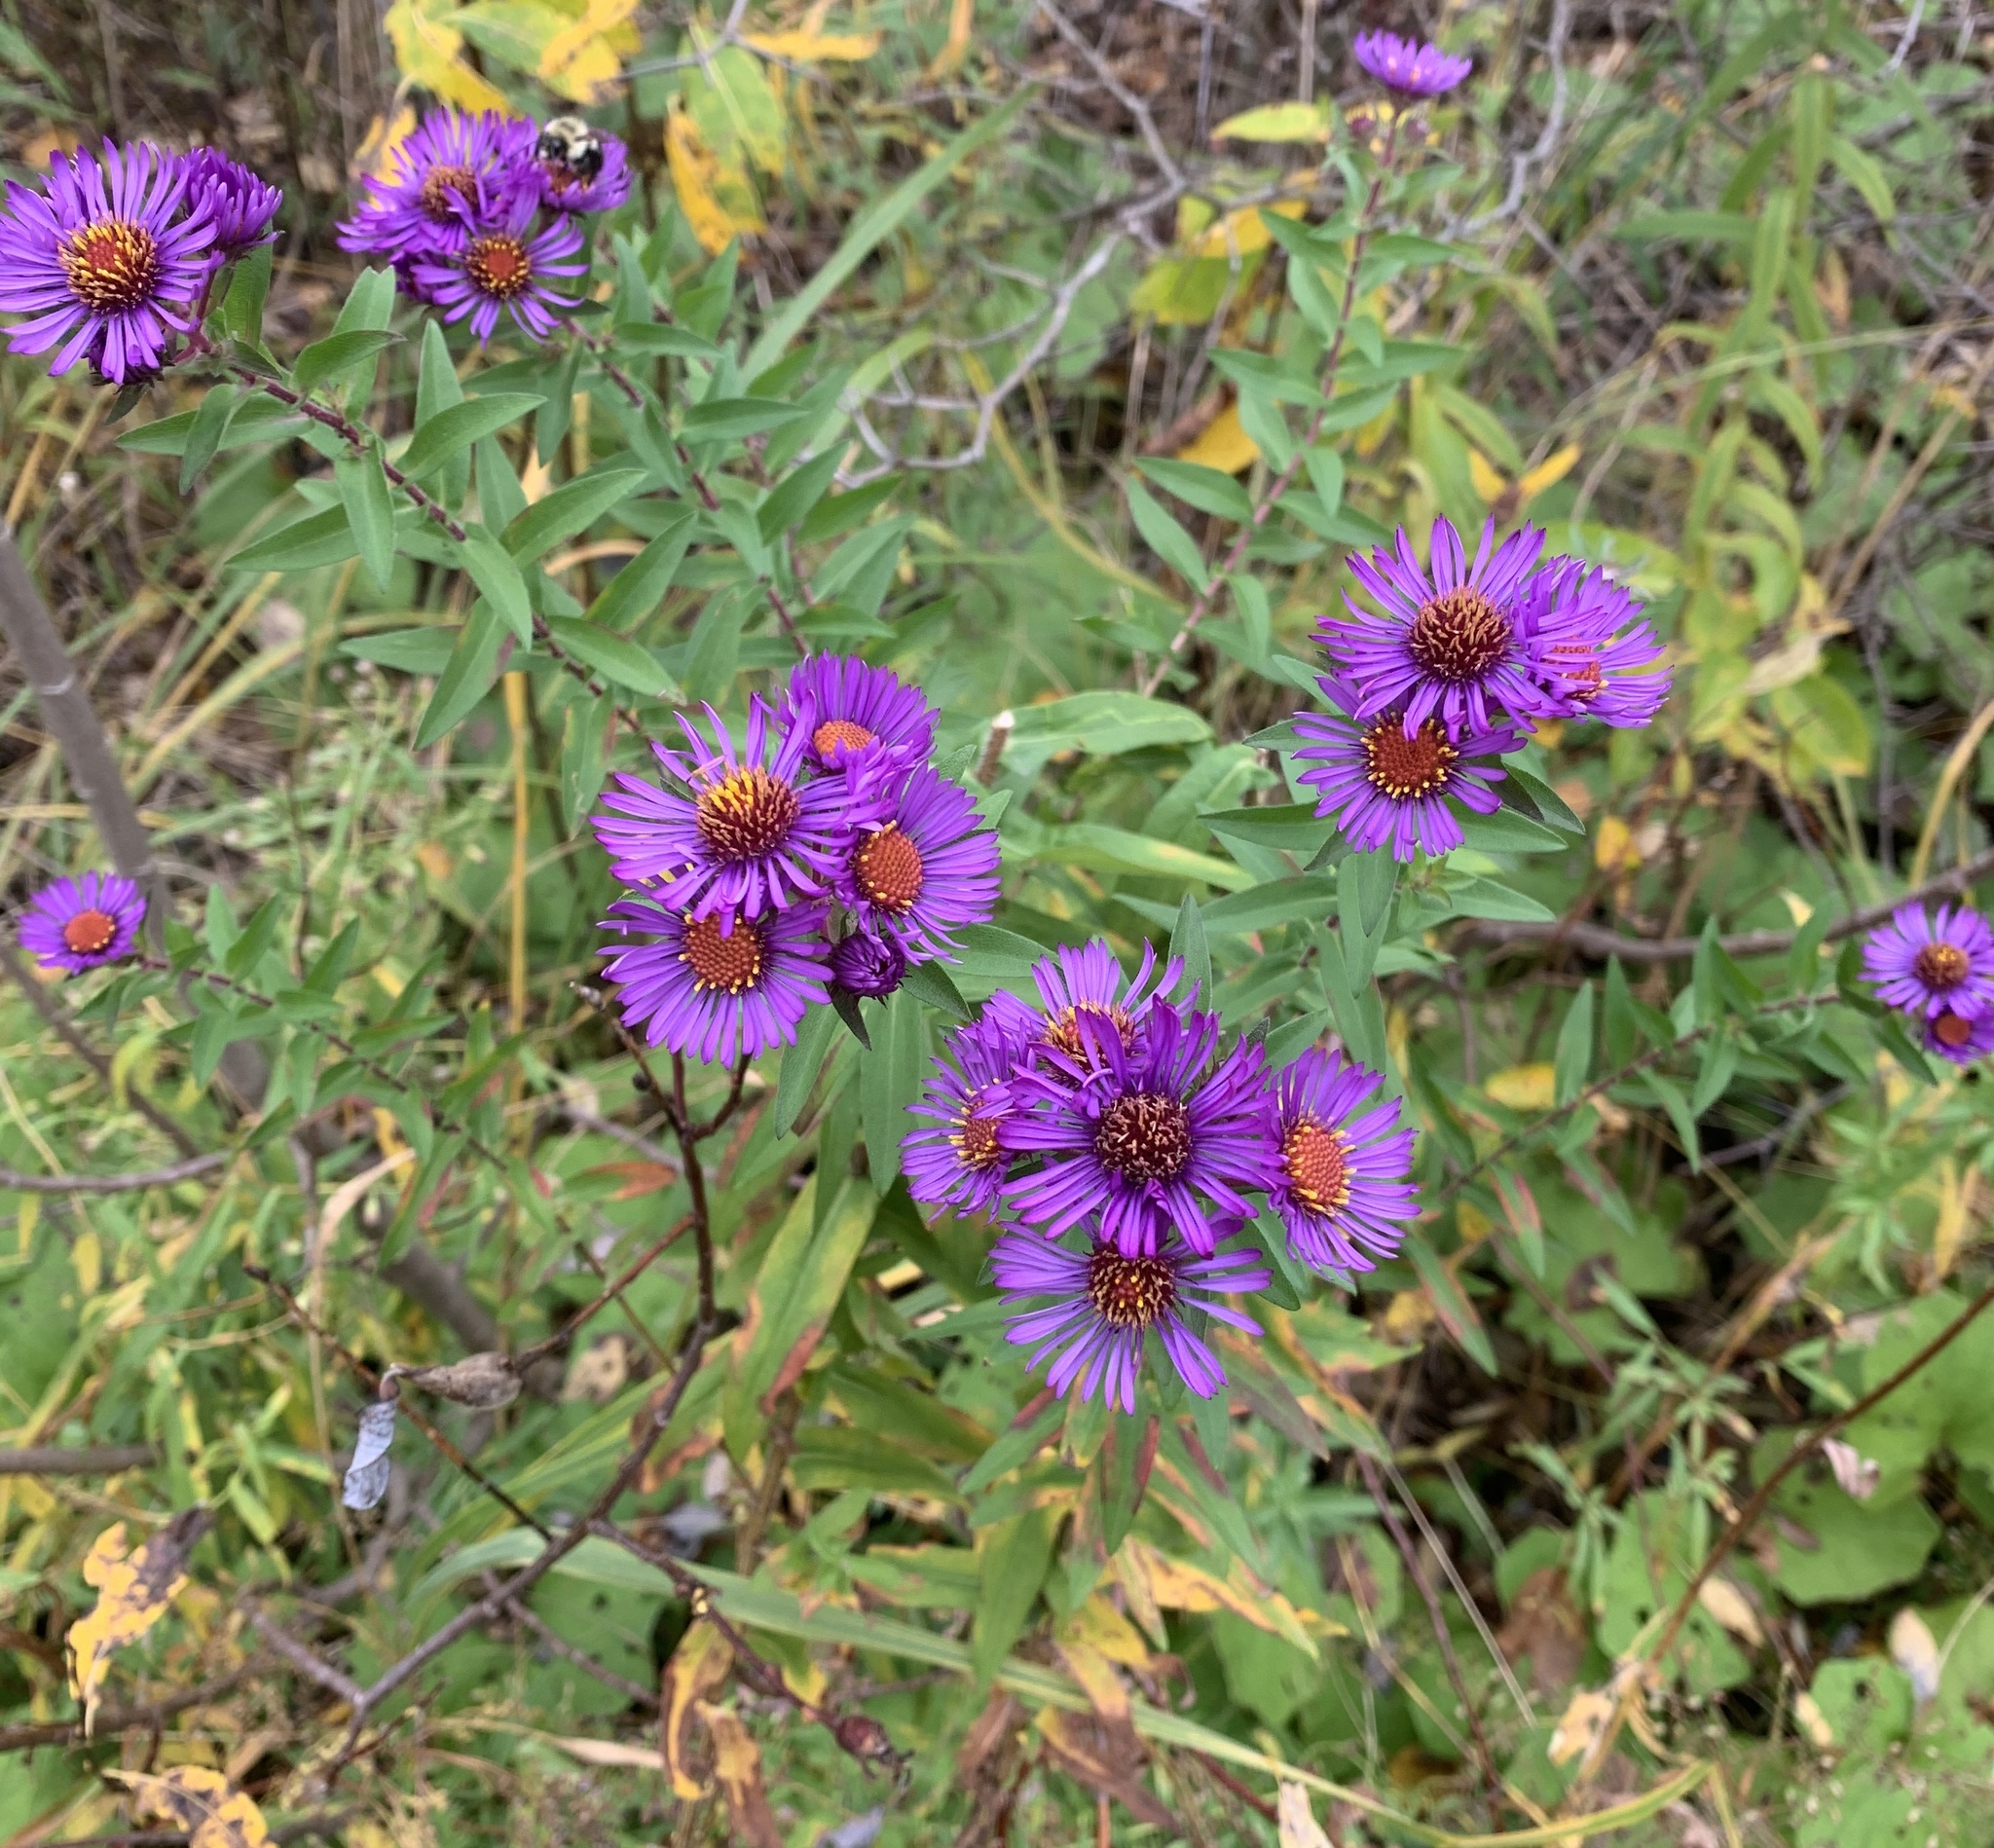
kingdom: Plantae
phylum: Tracheophyta
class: Magnoliopsida
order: Asterales
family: Asteraceae
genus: Symphyotrichum
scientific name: Symphyotrichum novae-angliae
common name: Michaelmas daisy
